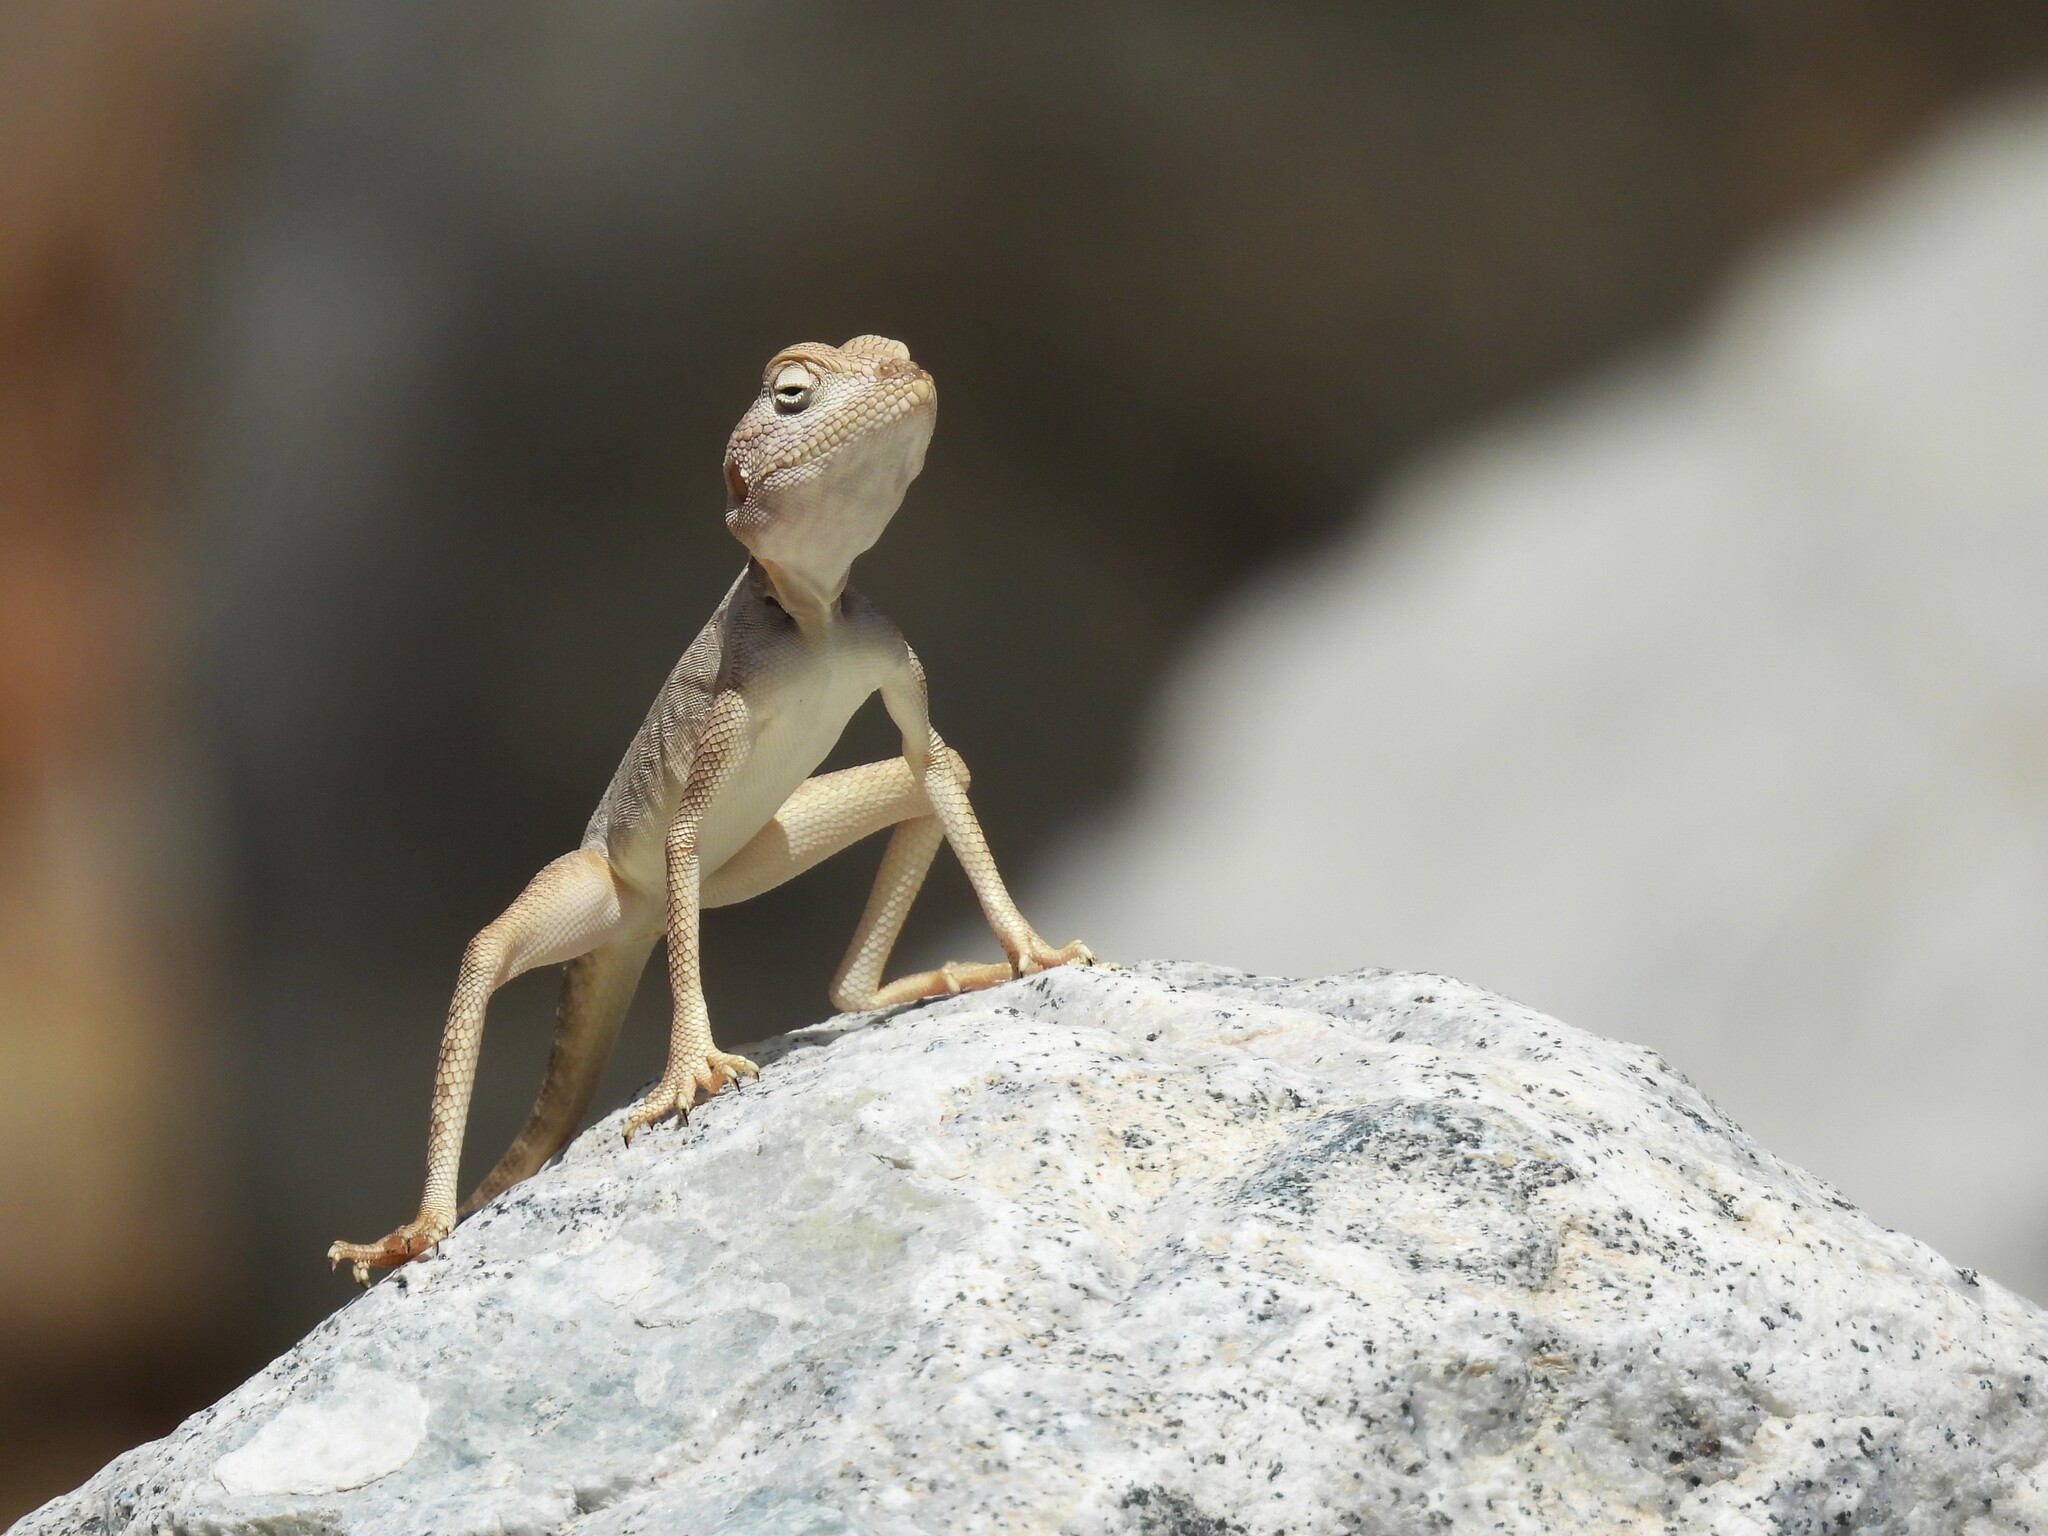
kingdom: Animalia
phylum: Chordata
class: Squamata
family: Agamidae
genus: Pseudotrapelus
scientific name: Pseudotrapelus jensvindumi
